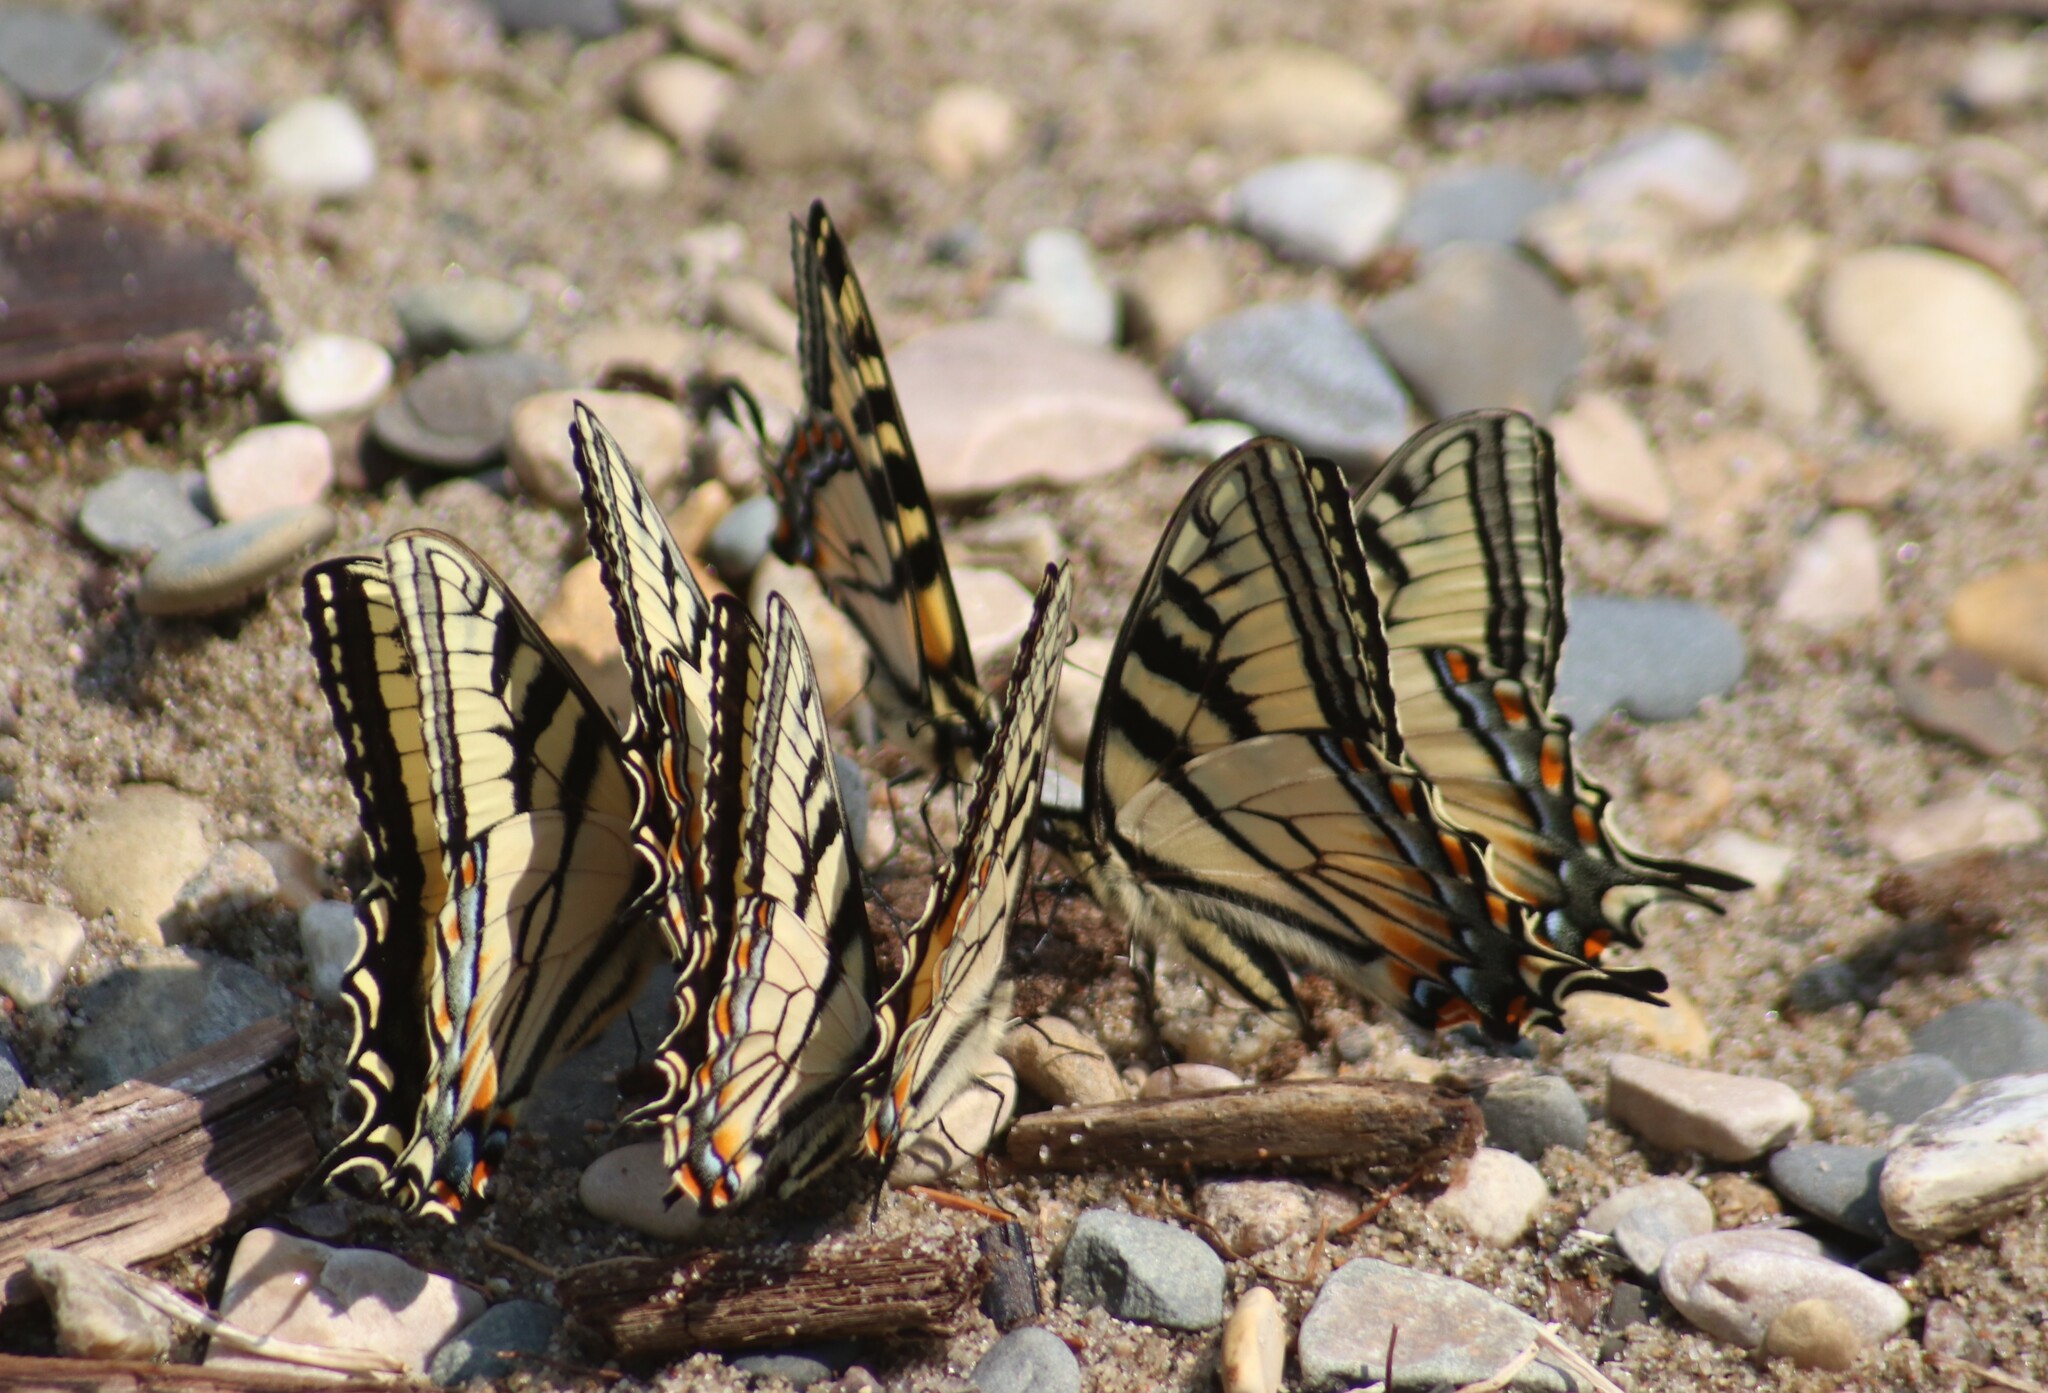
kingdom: Animalia
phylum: Arthropoda
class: Insecta
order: Lepidoptera
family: Papilionidae
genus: Papilio
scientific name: Papilio canadensis
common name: Canadian tiger swallowtail
